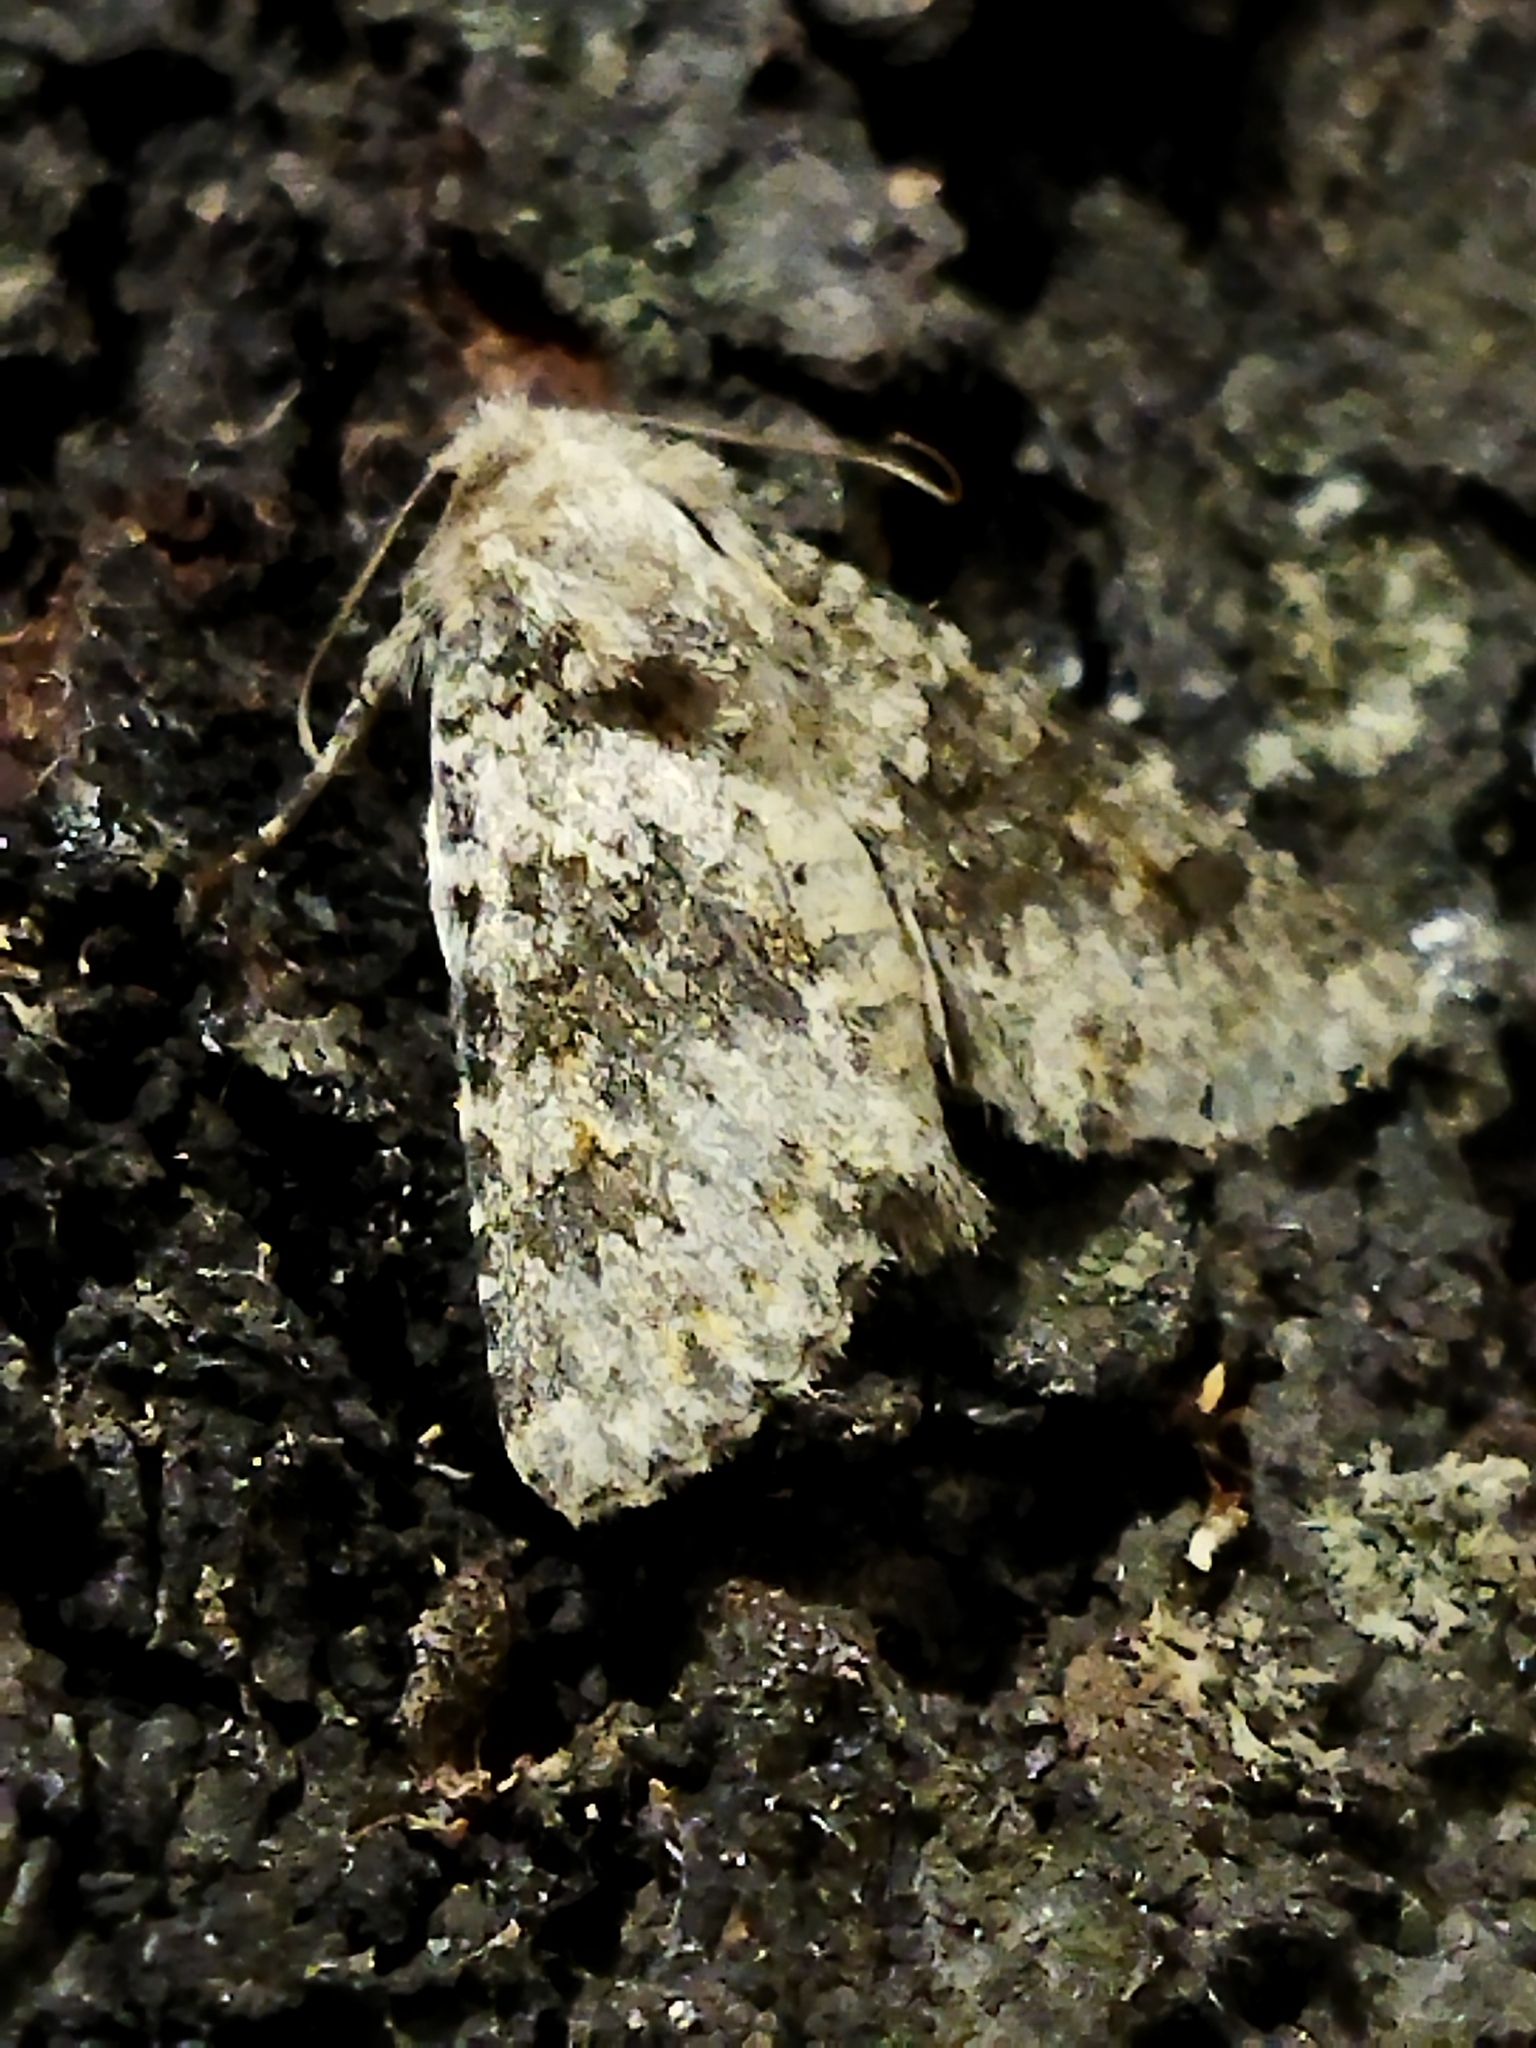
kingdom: Animalia
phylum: Arthropoda
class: Insecta
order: Lepidoptera
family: Noctuidae
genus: Hecatera
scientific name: Hecatera dysodea
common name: Small ranunculus
